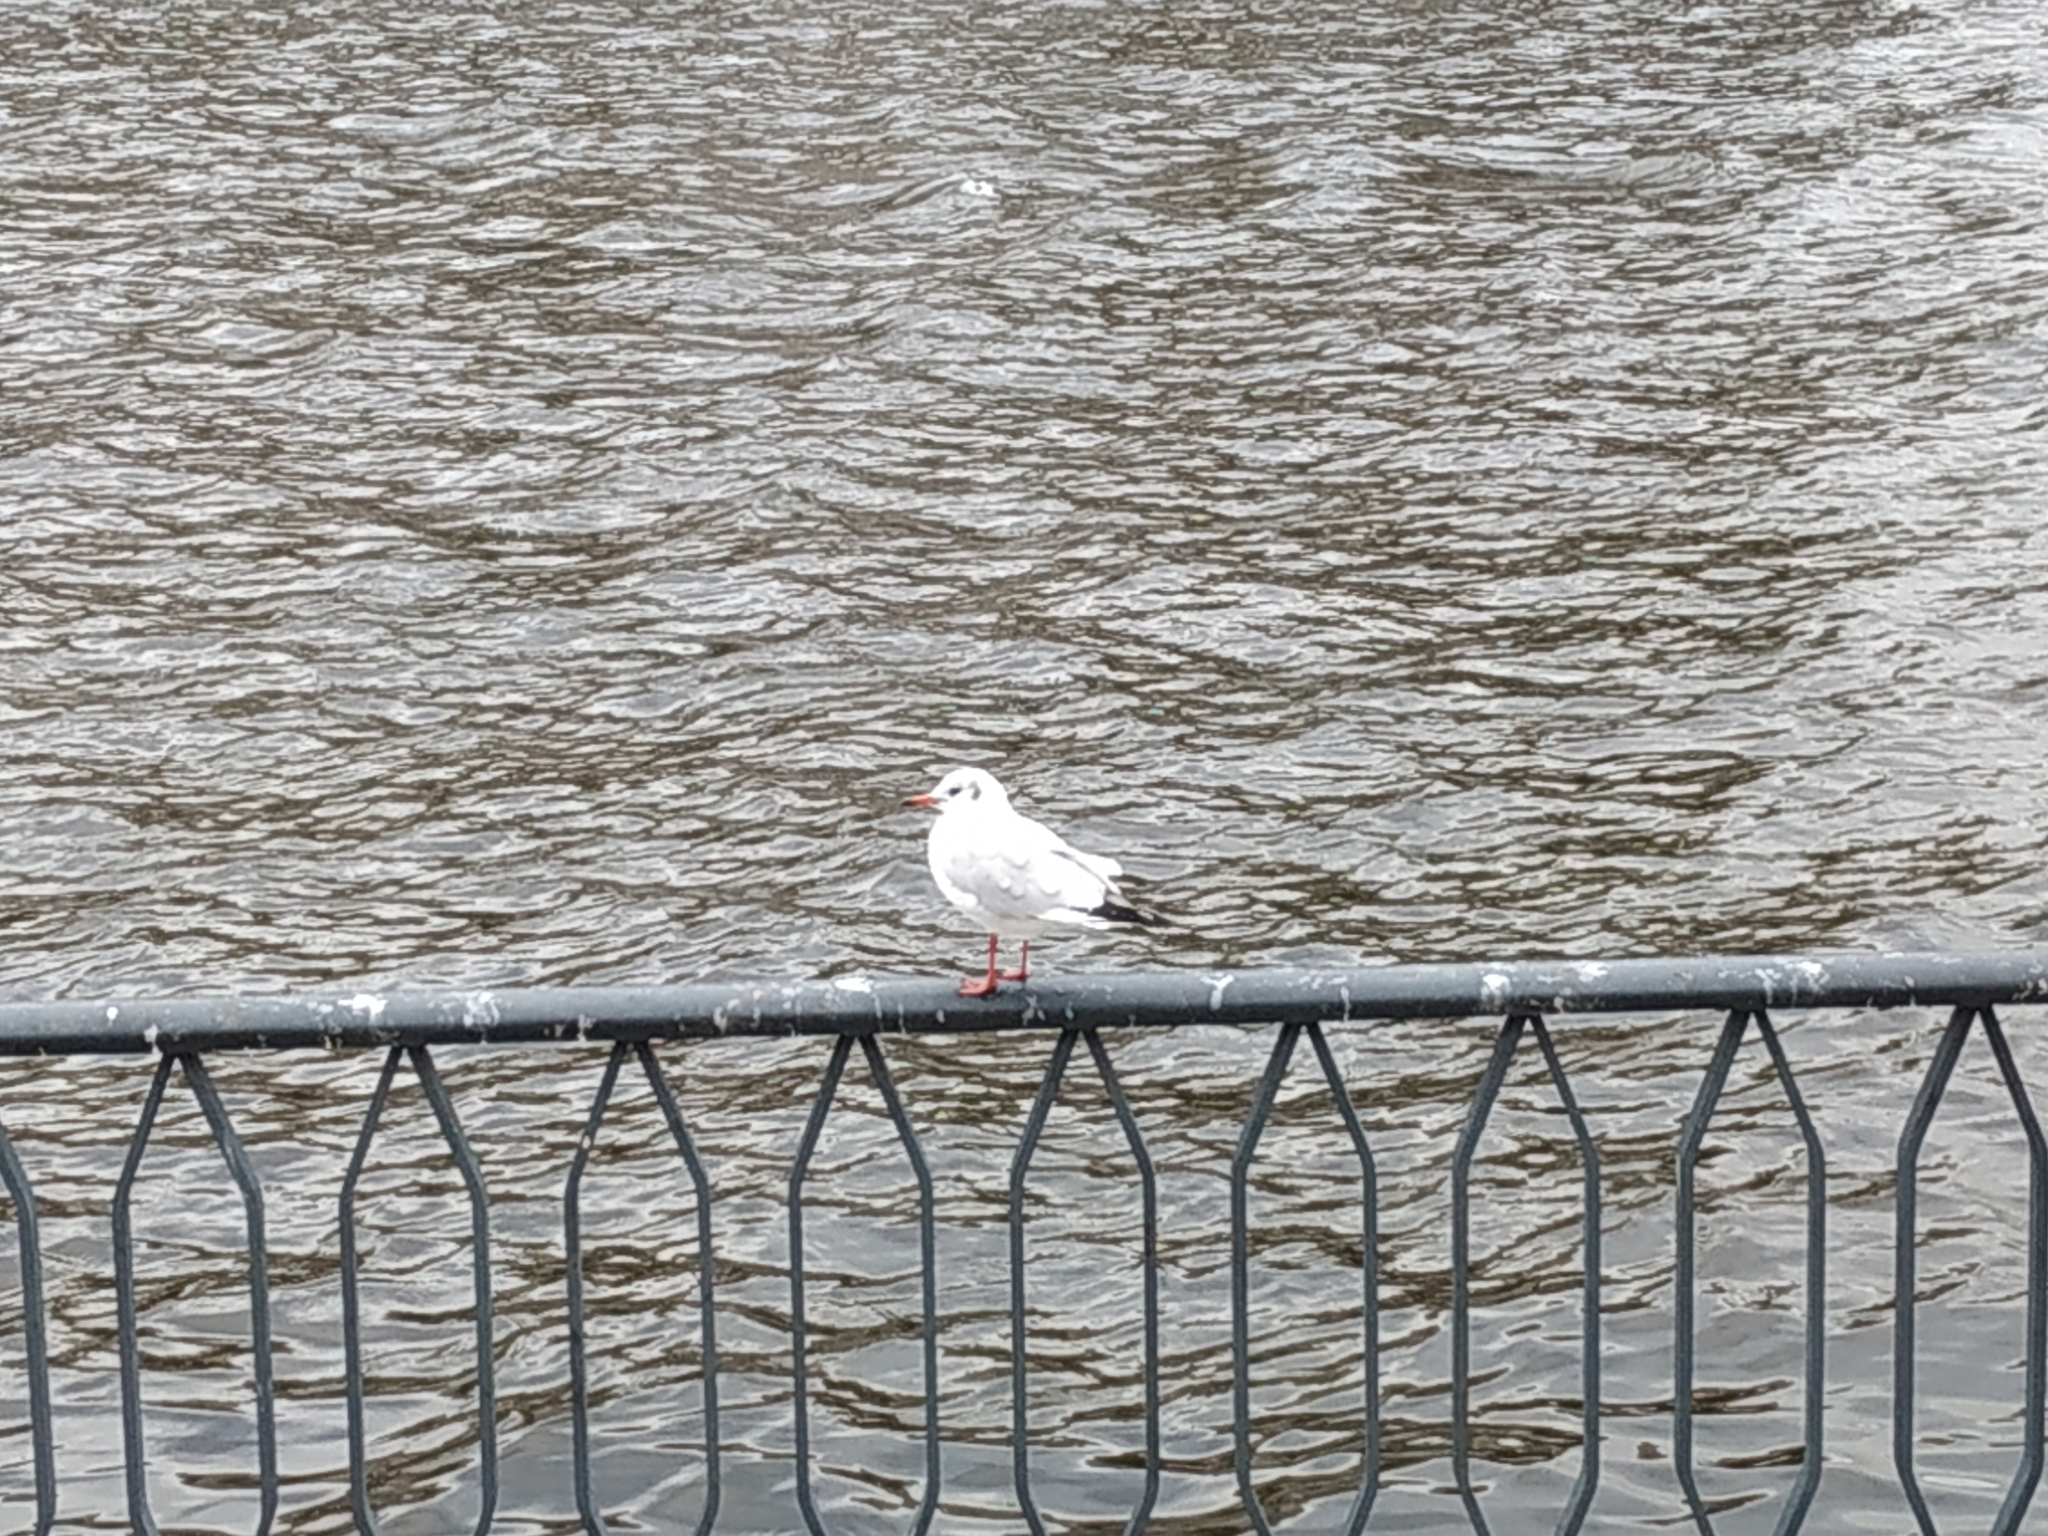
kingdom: Animalia
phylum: Chordata
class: Aves
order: Charadriiformes
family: Laridae
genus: Chroicocephalus
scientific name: Chroicocephalus ridibundus
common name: Black-headed gull
